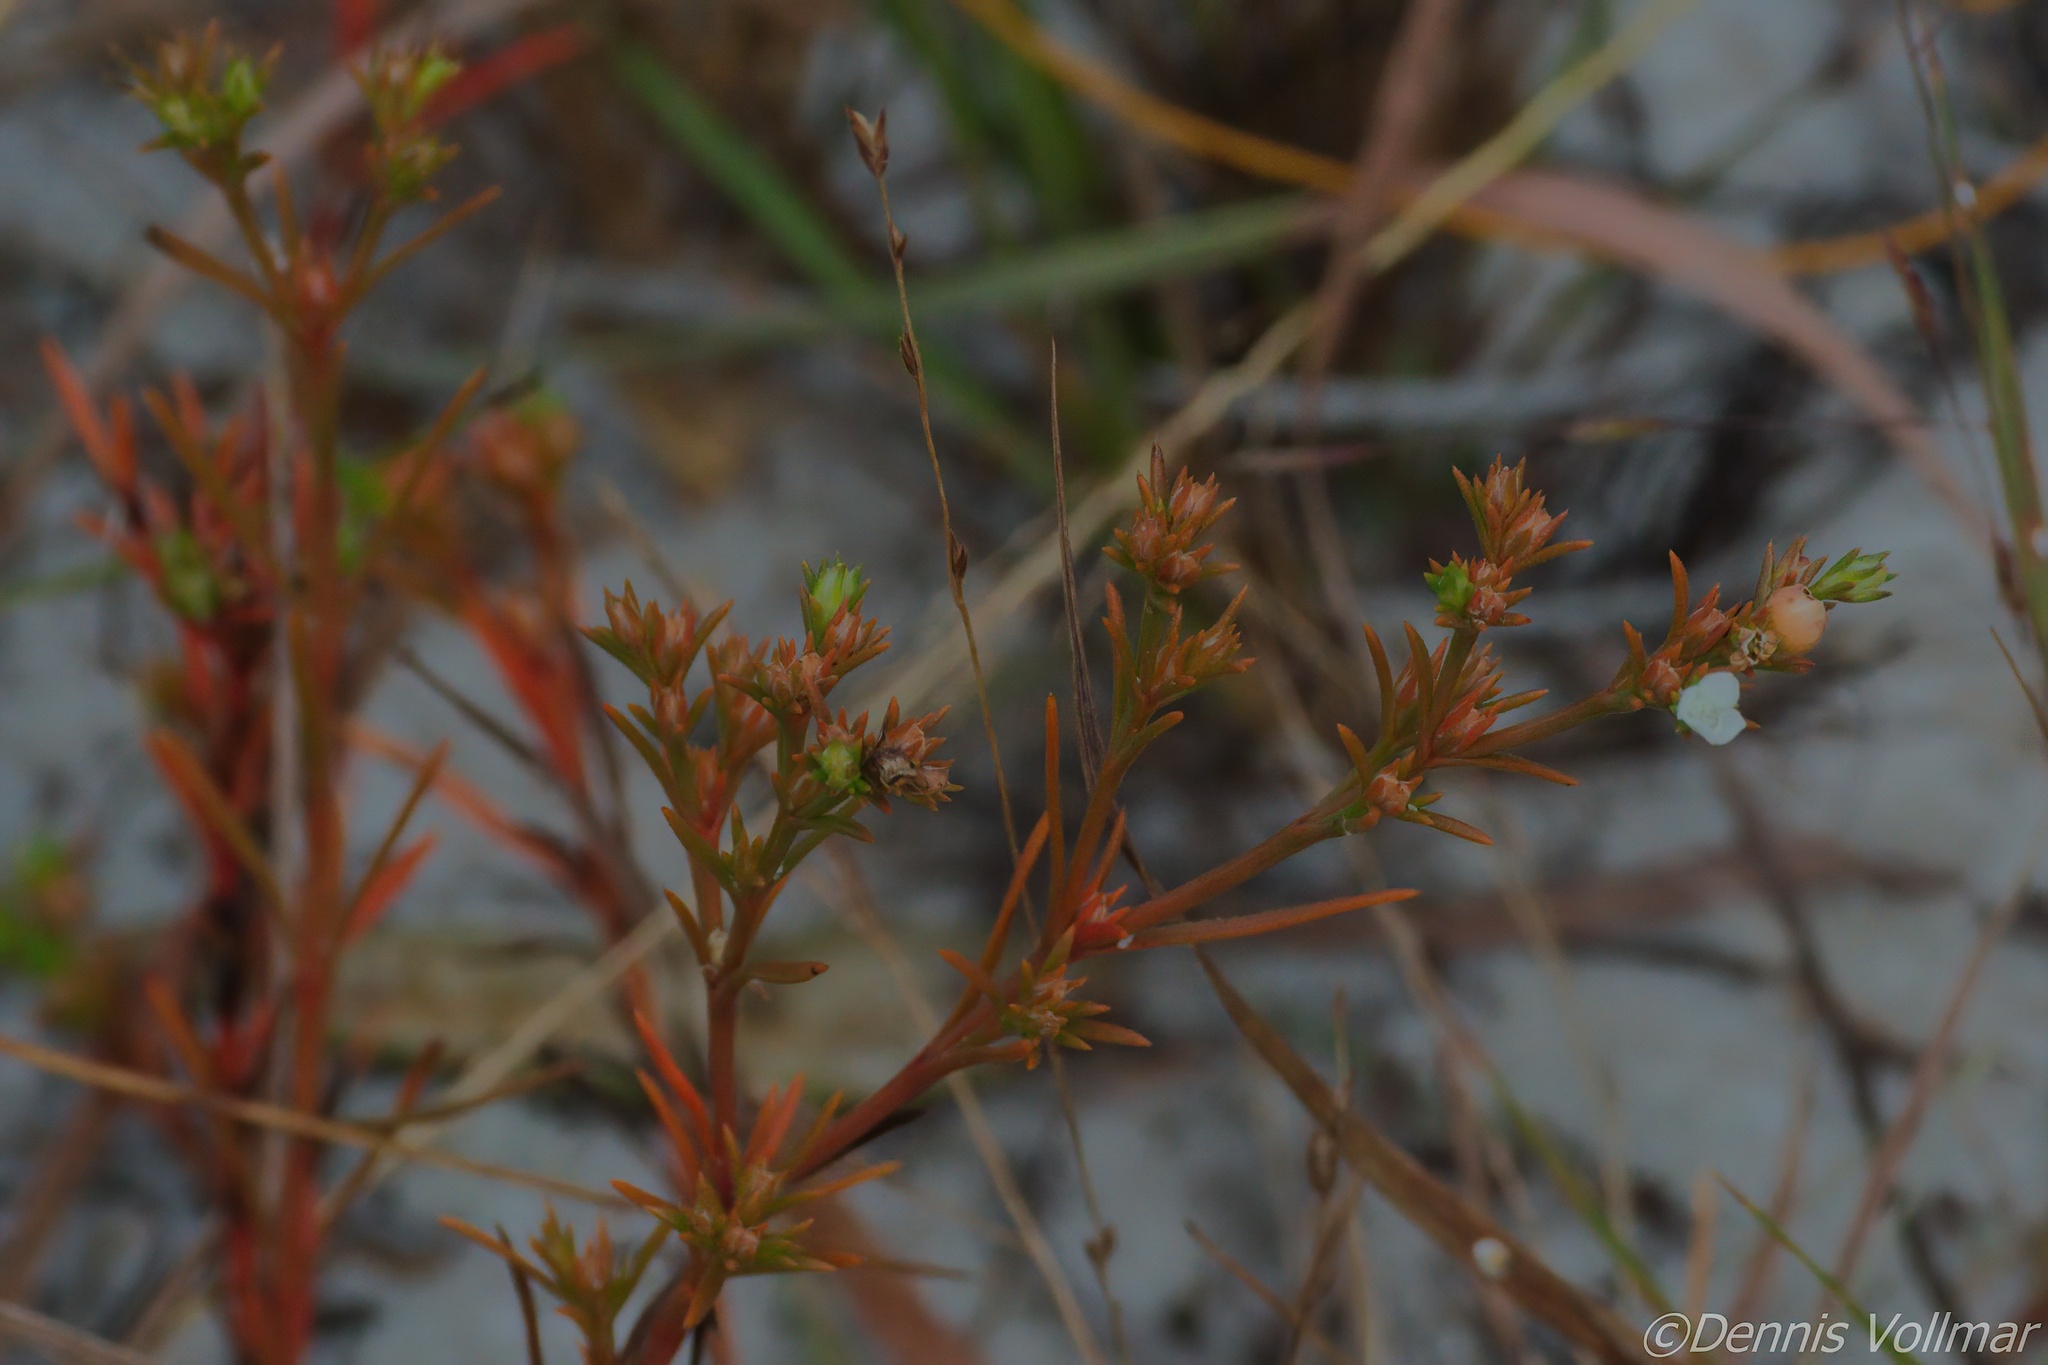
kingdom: Plantae
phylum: Tracheophyta
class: Magnoliopsida
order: Lamiales
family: Tetrachondraceae
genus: Polypremum
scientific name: Polypremum procumbens
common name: Juniper-leaf
